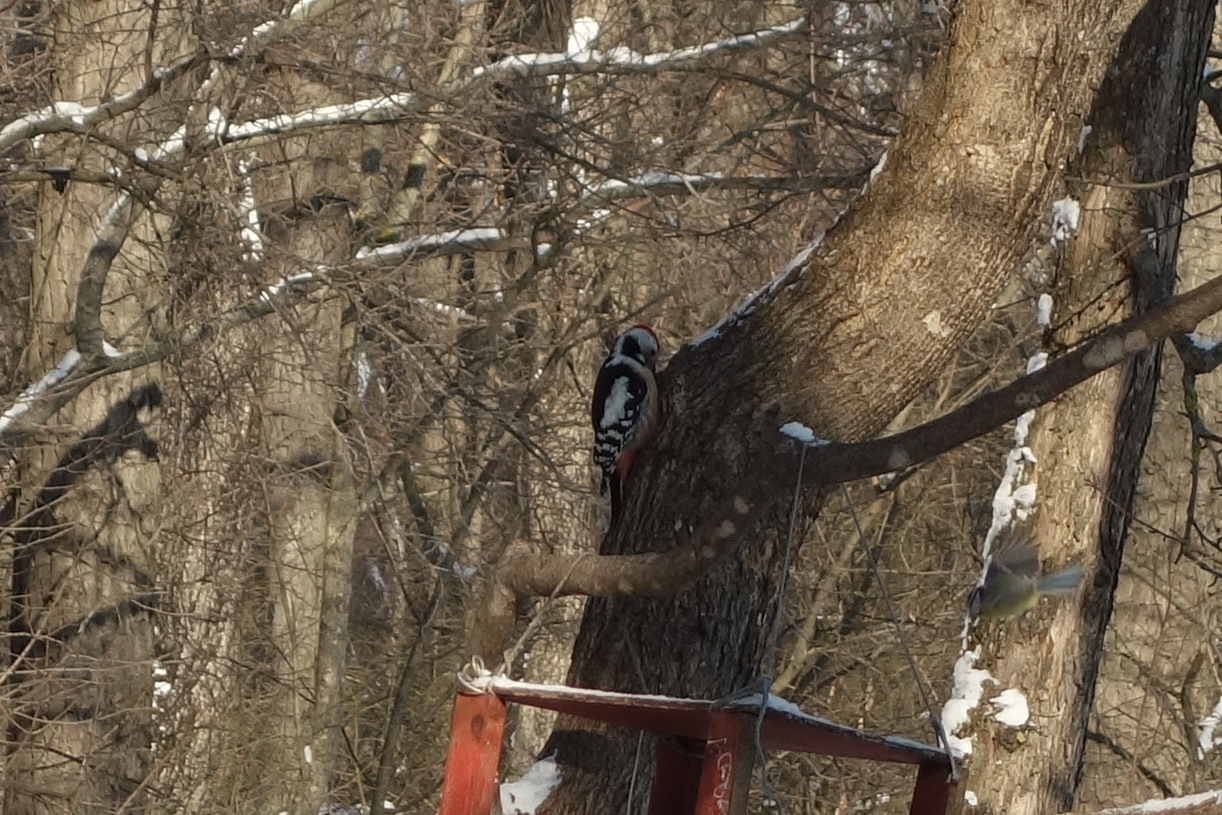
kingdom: Animalia
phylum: Chordata
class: Aves
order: Piciformes
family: Picidae
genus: Dendrocoptes
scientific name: Dendrocoptes medius
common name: Middle spotted woodpecker
